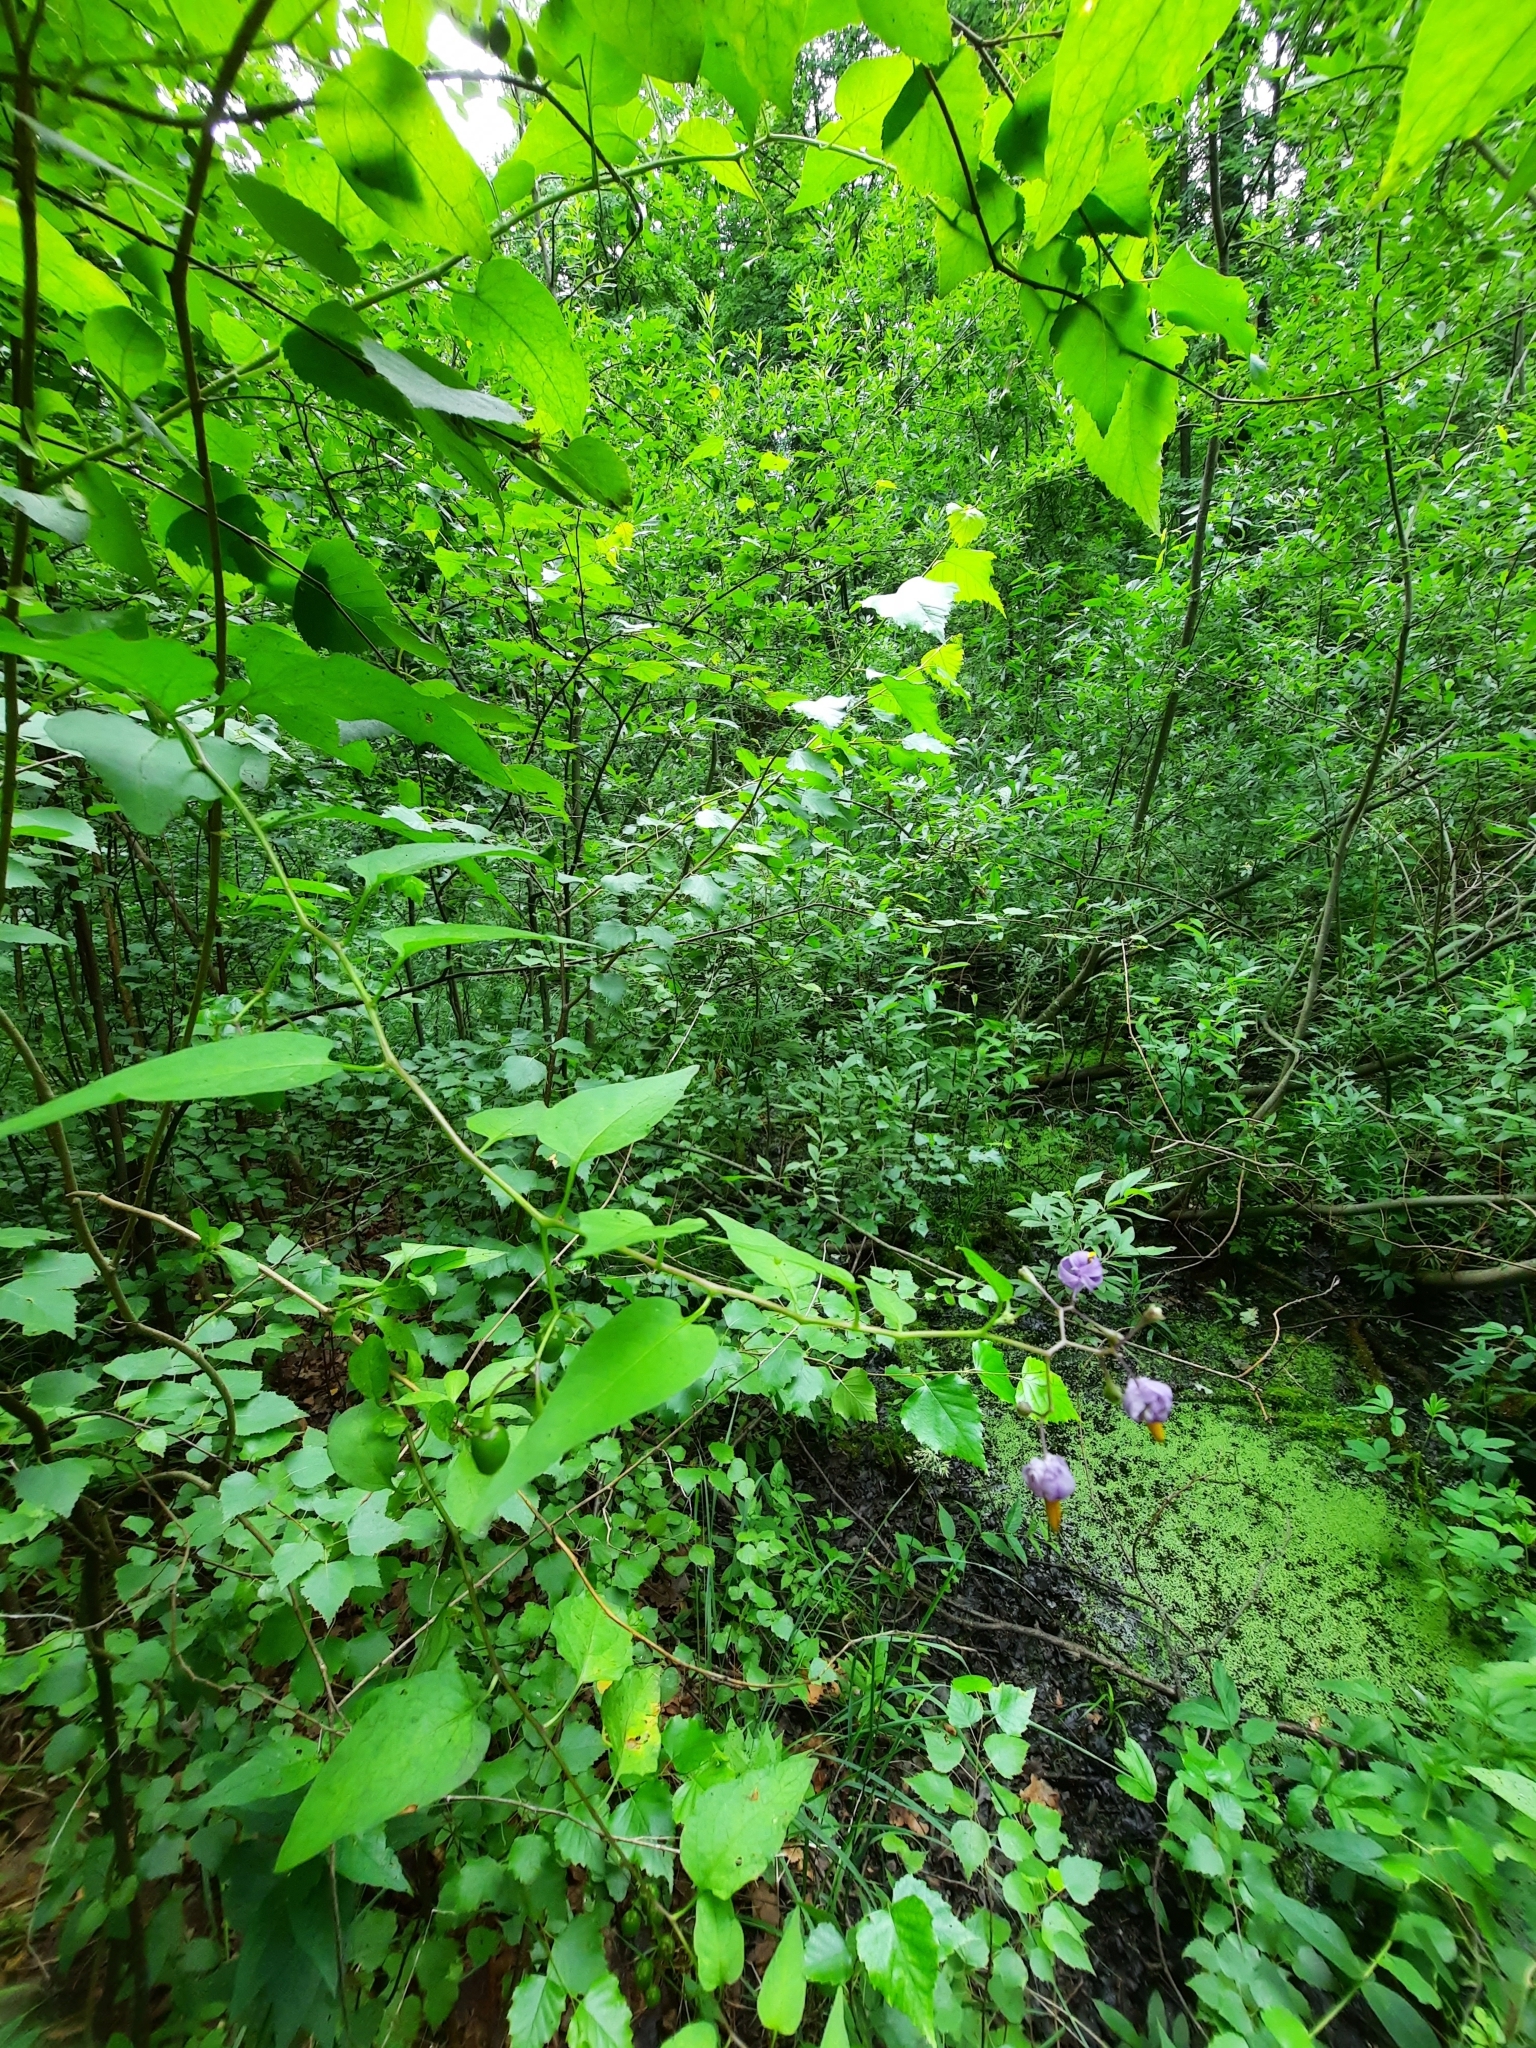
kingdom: Plantae
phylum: Tracheophyta
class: Magnoliopsida
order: Solanales
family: Solanaceae
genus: Solanum
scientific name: Solanum dulcamara
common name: Climbing nightshade
